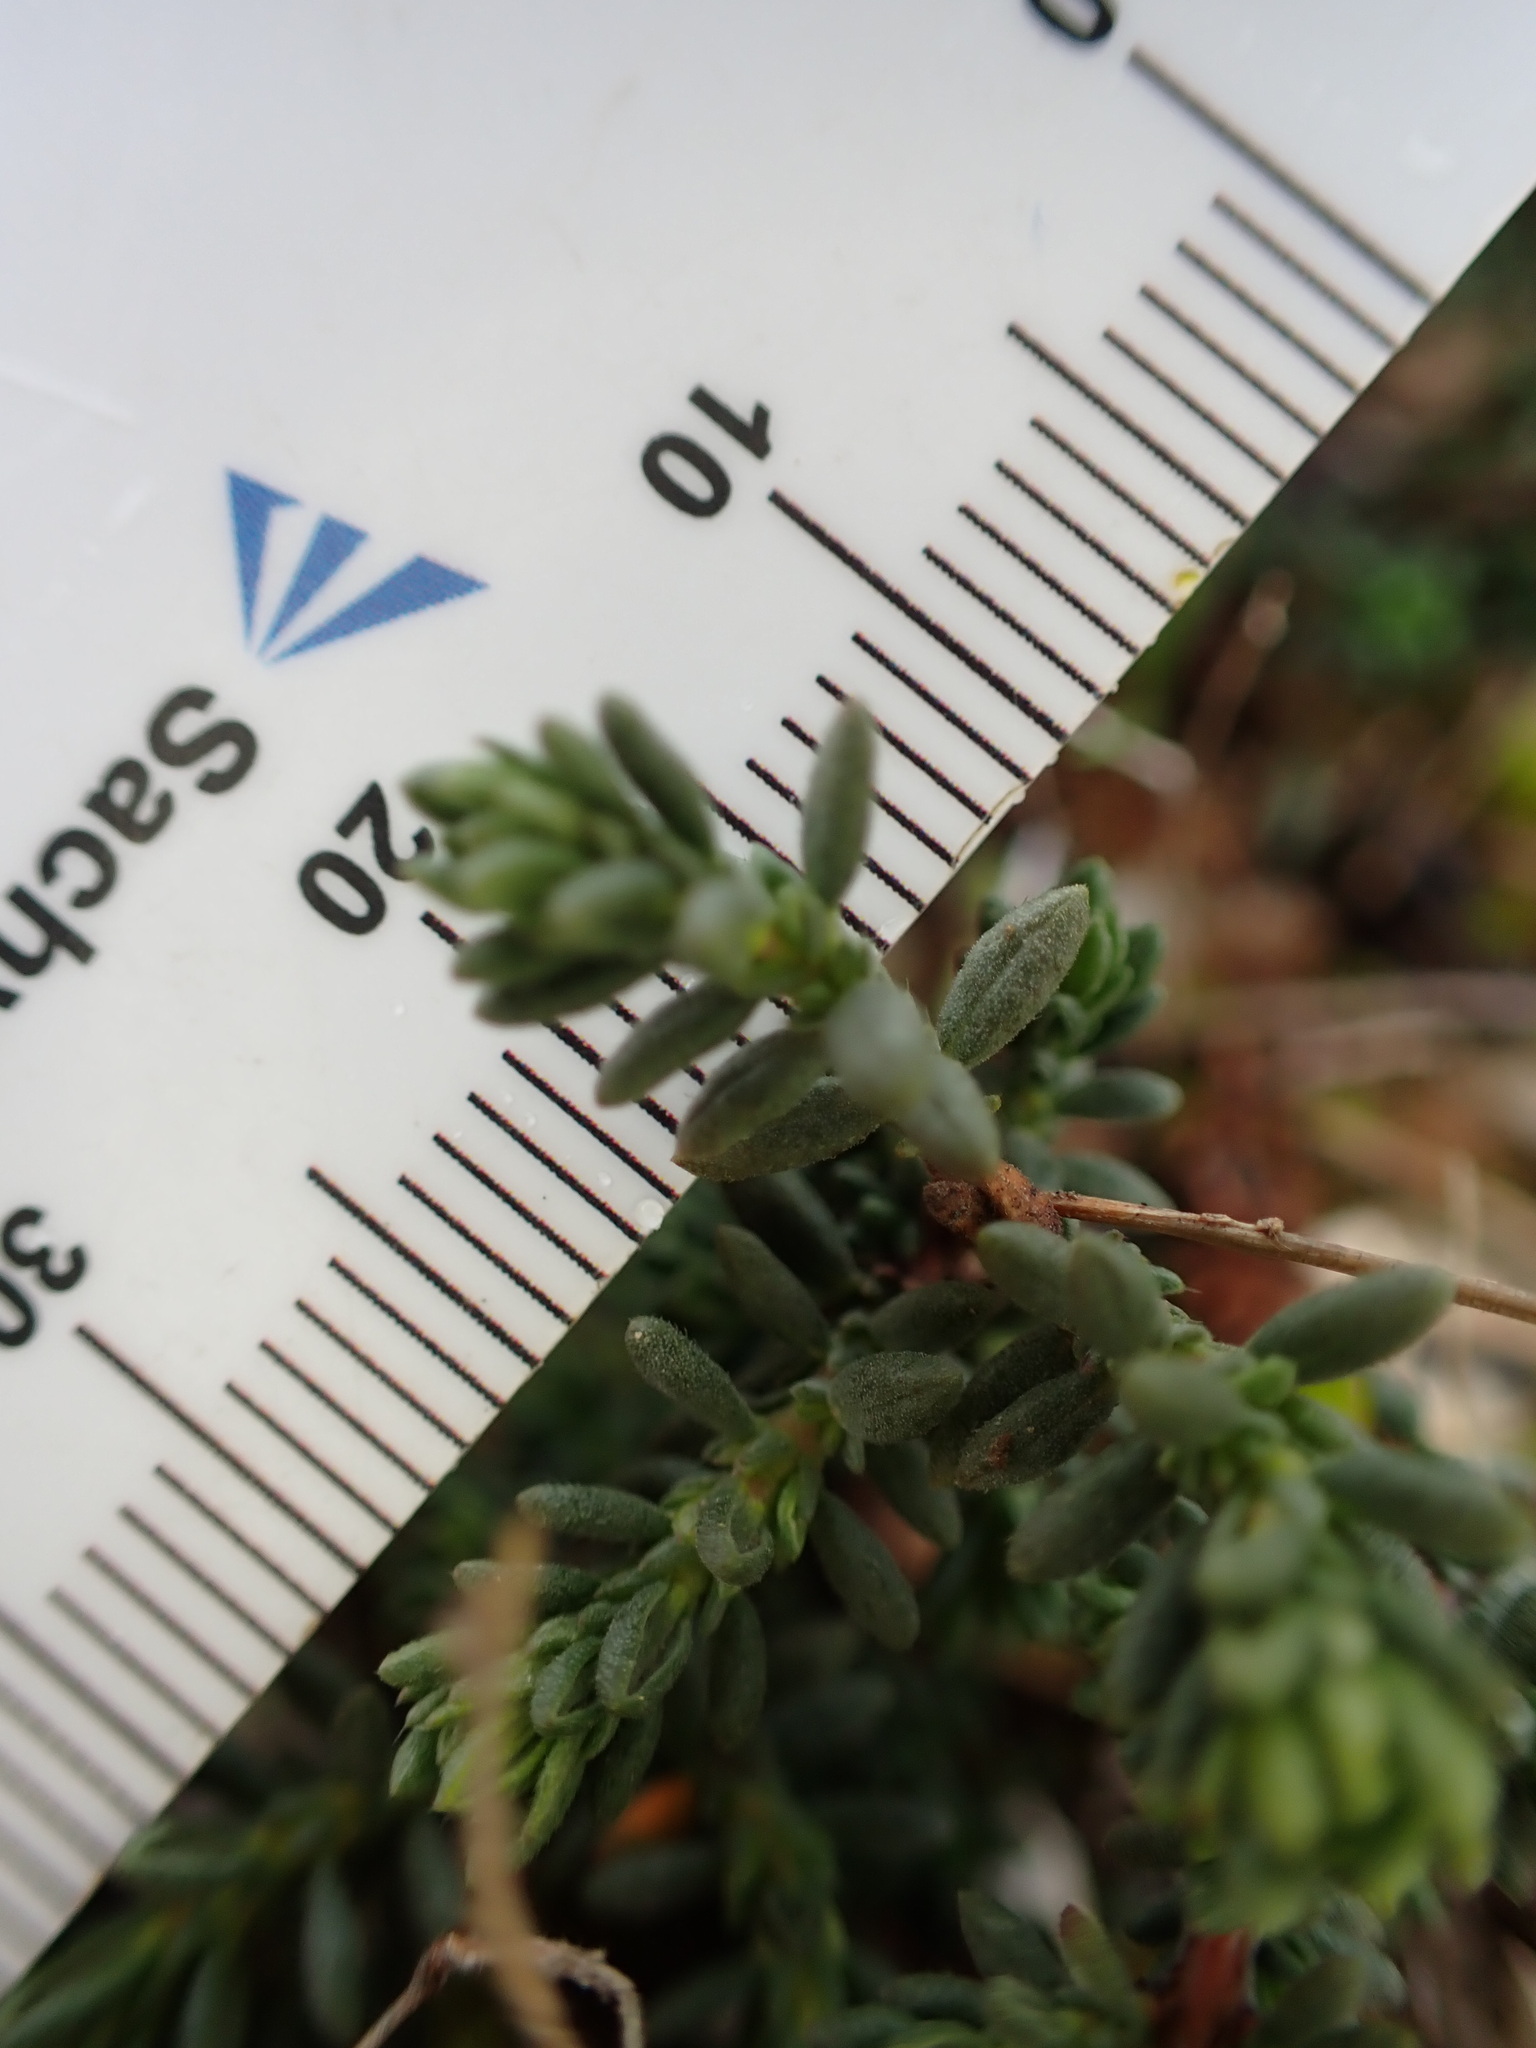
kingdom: Plantae
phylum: Tracheophyta
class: Magnoliopsida
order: Malvales
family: Cistaceae
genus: Fumana
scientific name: Fumana thymifolia
